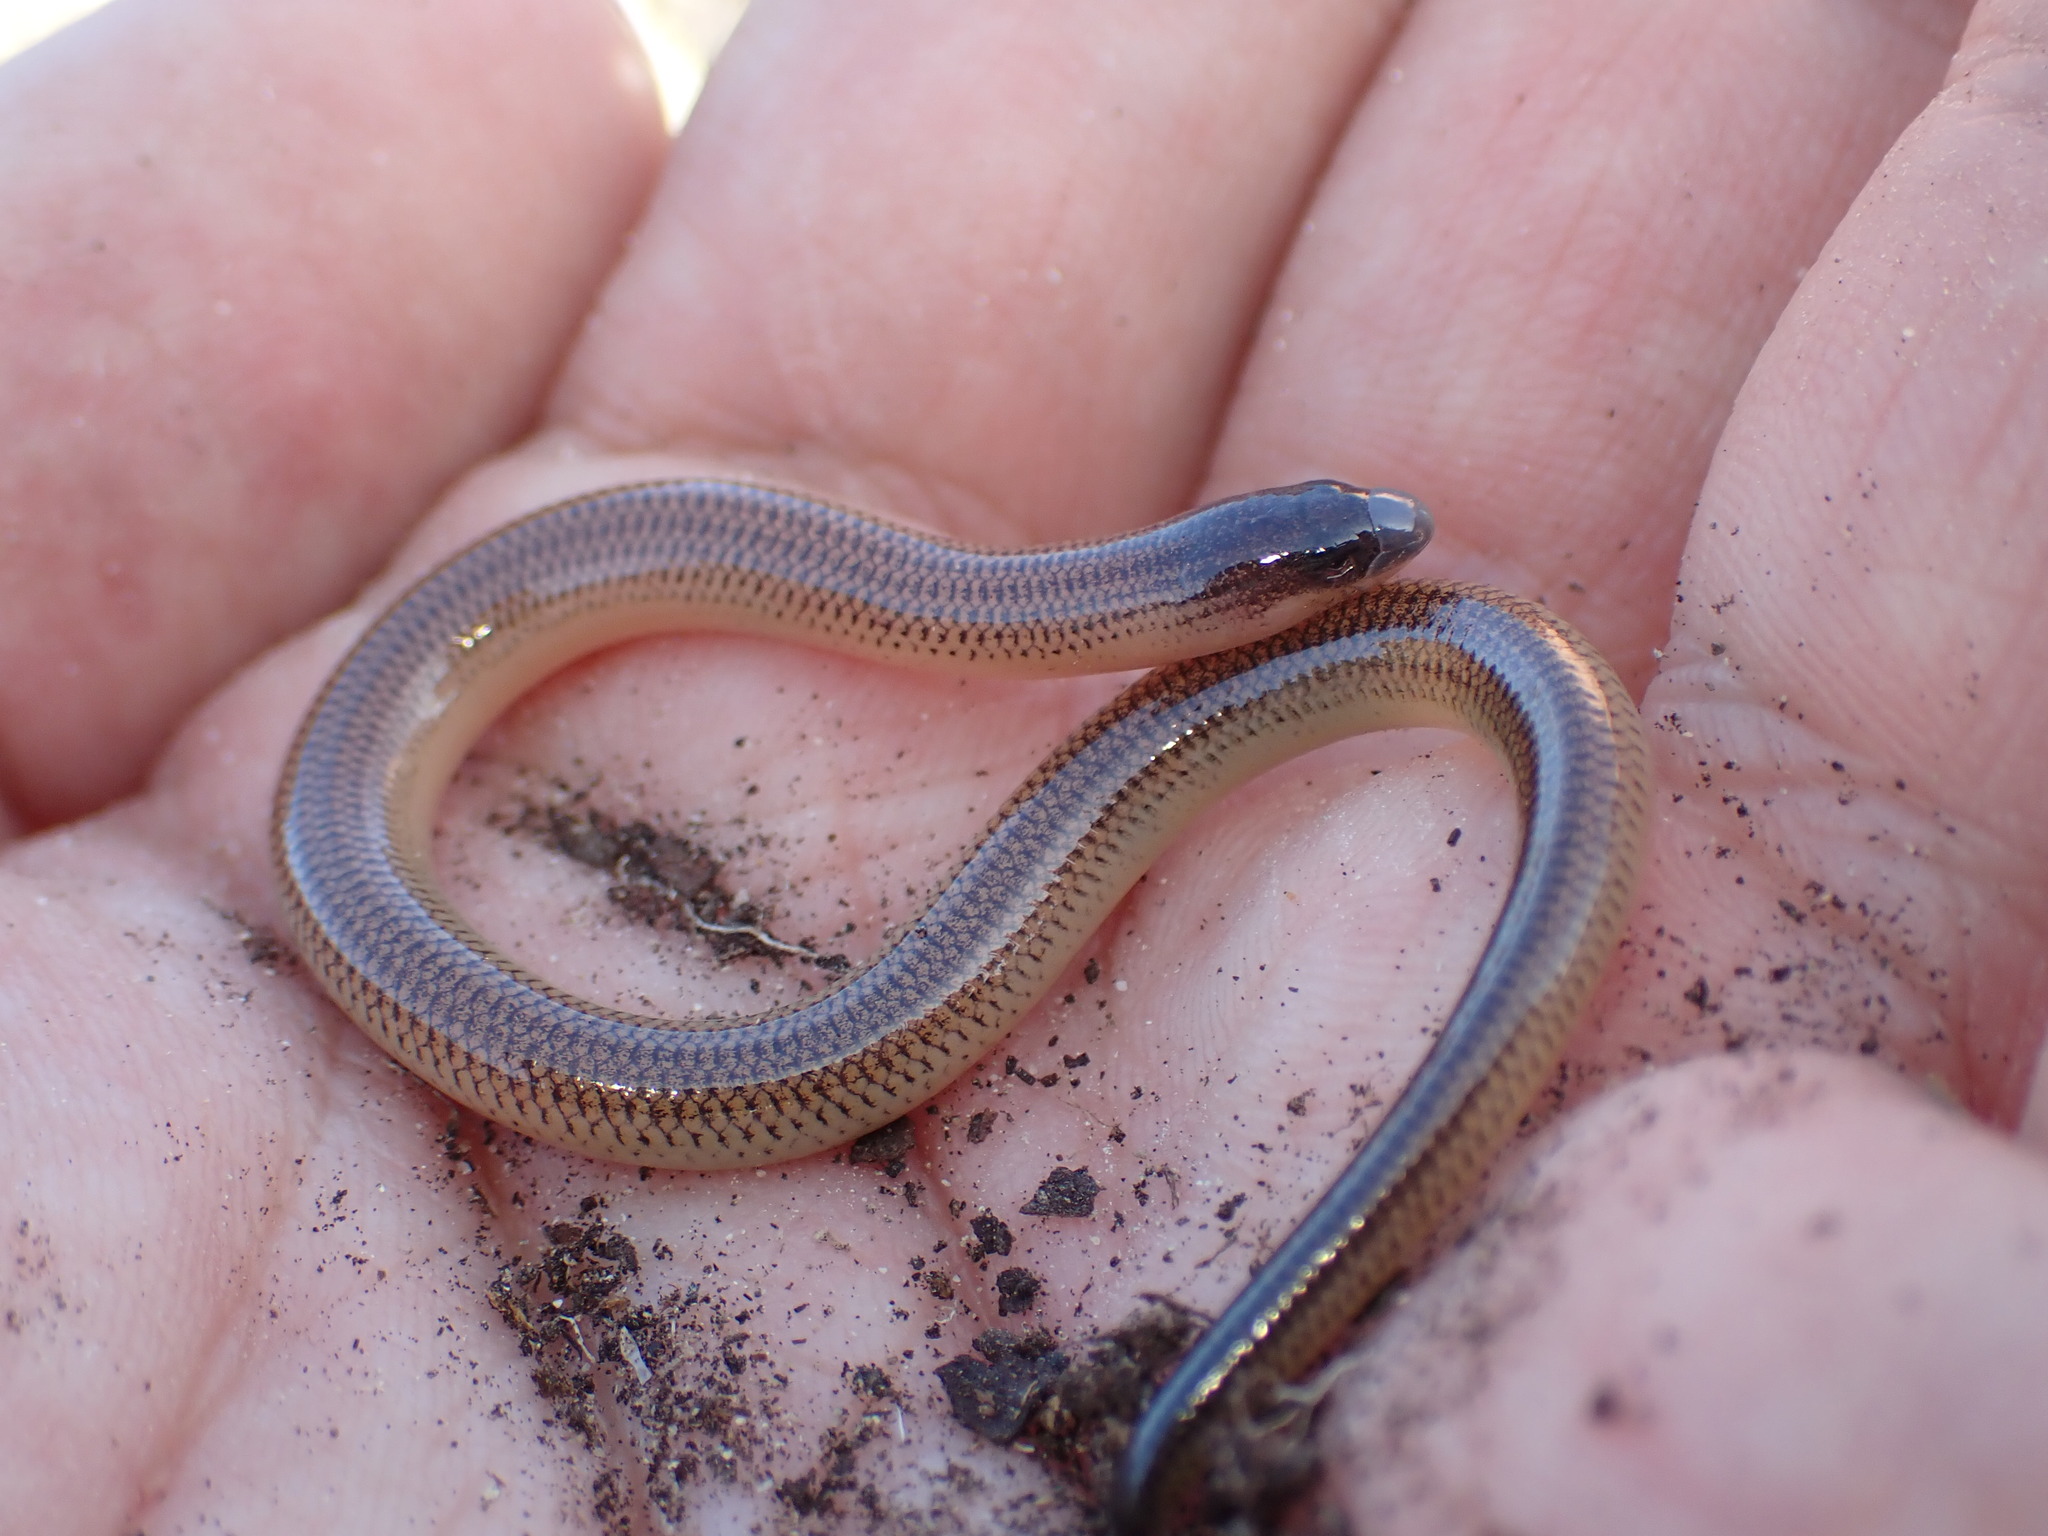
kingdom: Animalia
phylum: Chordata
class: Squamata
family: Scincidae
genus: Acontias
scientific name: Acontias meleagris
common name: Cape legless skink
